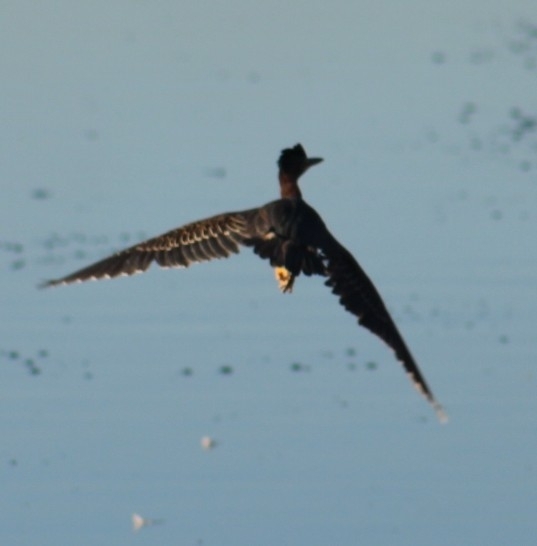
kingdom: Animalia
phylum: Chordata
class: Aves
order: Pelecaniformes
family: Ardeidae
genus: Butorides
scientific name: Butorides virescens
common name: Green heron
